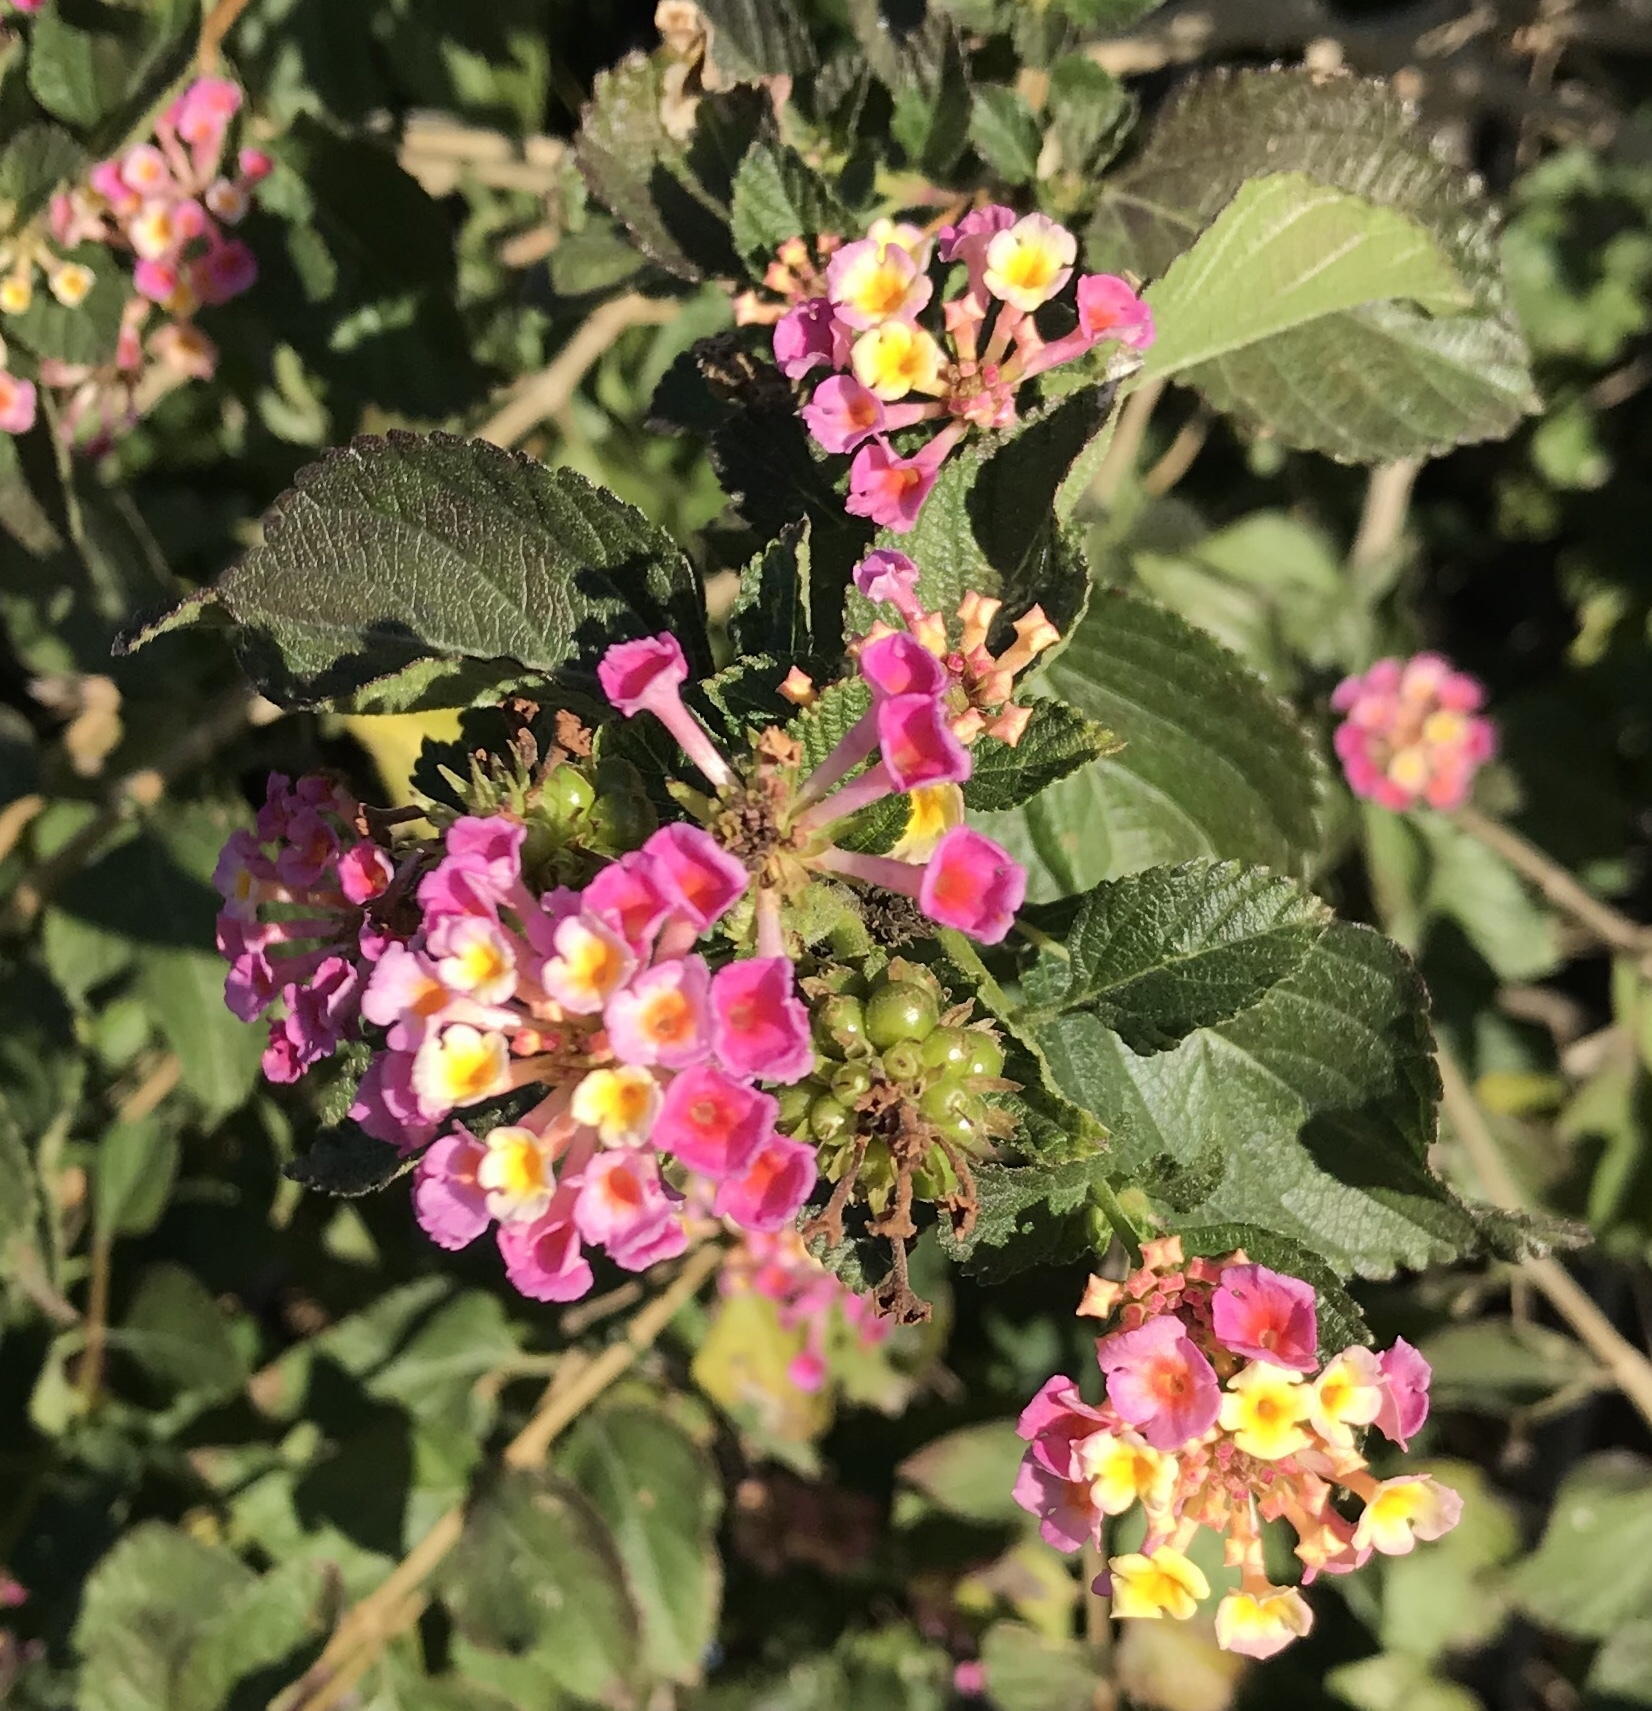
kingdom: Plantae
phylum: Tracheophyta
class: Magnoliopsida
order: Lamiales
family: Verbenaceae
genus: Lantana
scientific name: Lantana strigocamara
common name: Lantana
